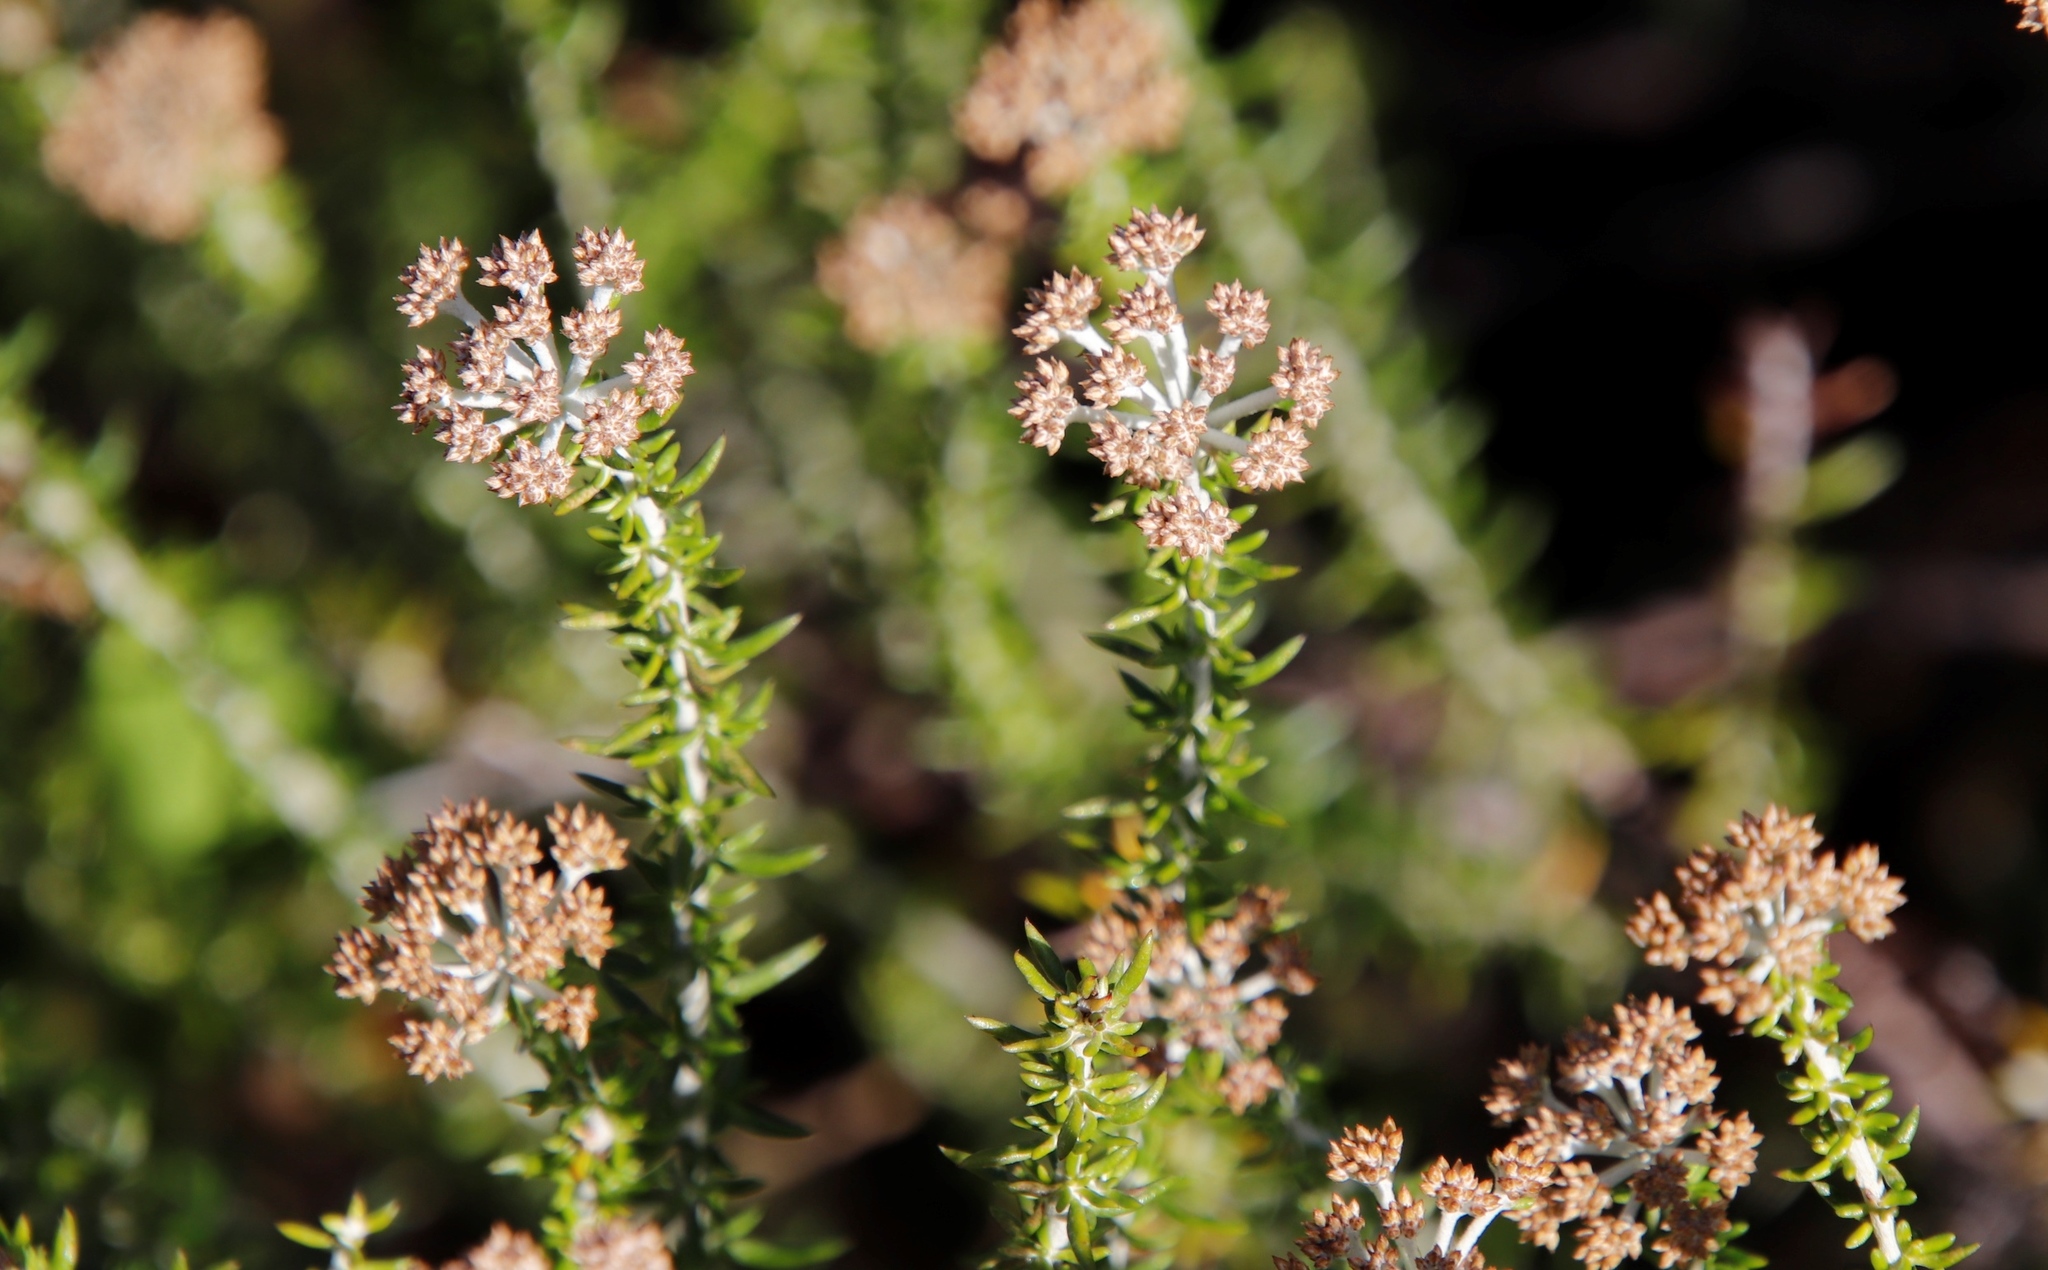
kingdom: Plantae
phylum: Tracheophyta
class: Magnoliopsida
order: Asterales
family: Asteraceae
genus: Metalasia
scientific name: Metalasia densa
